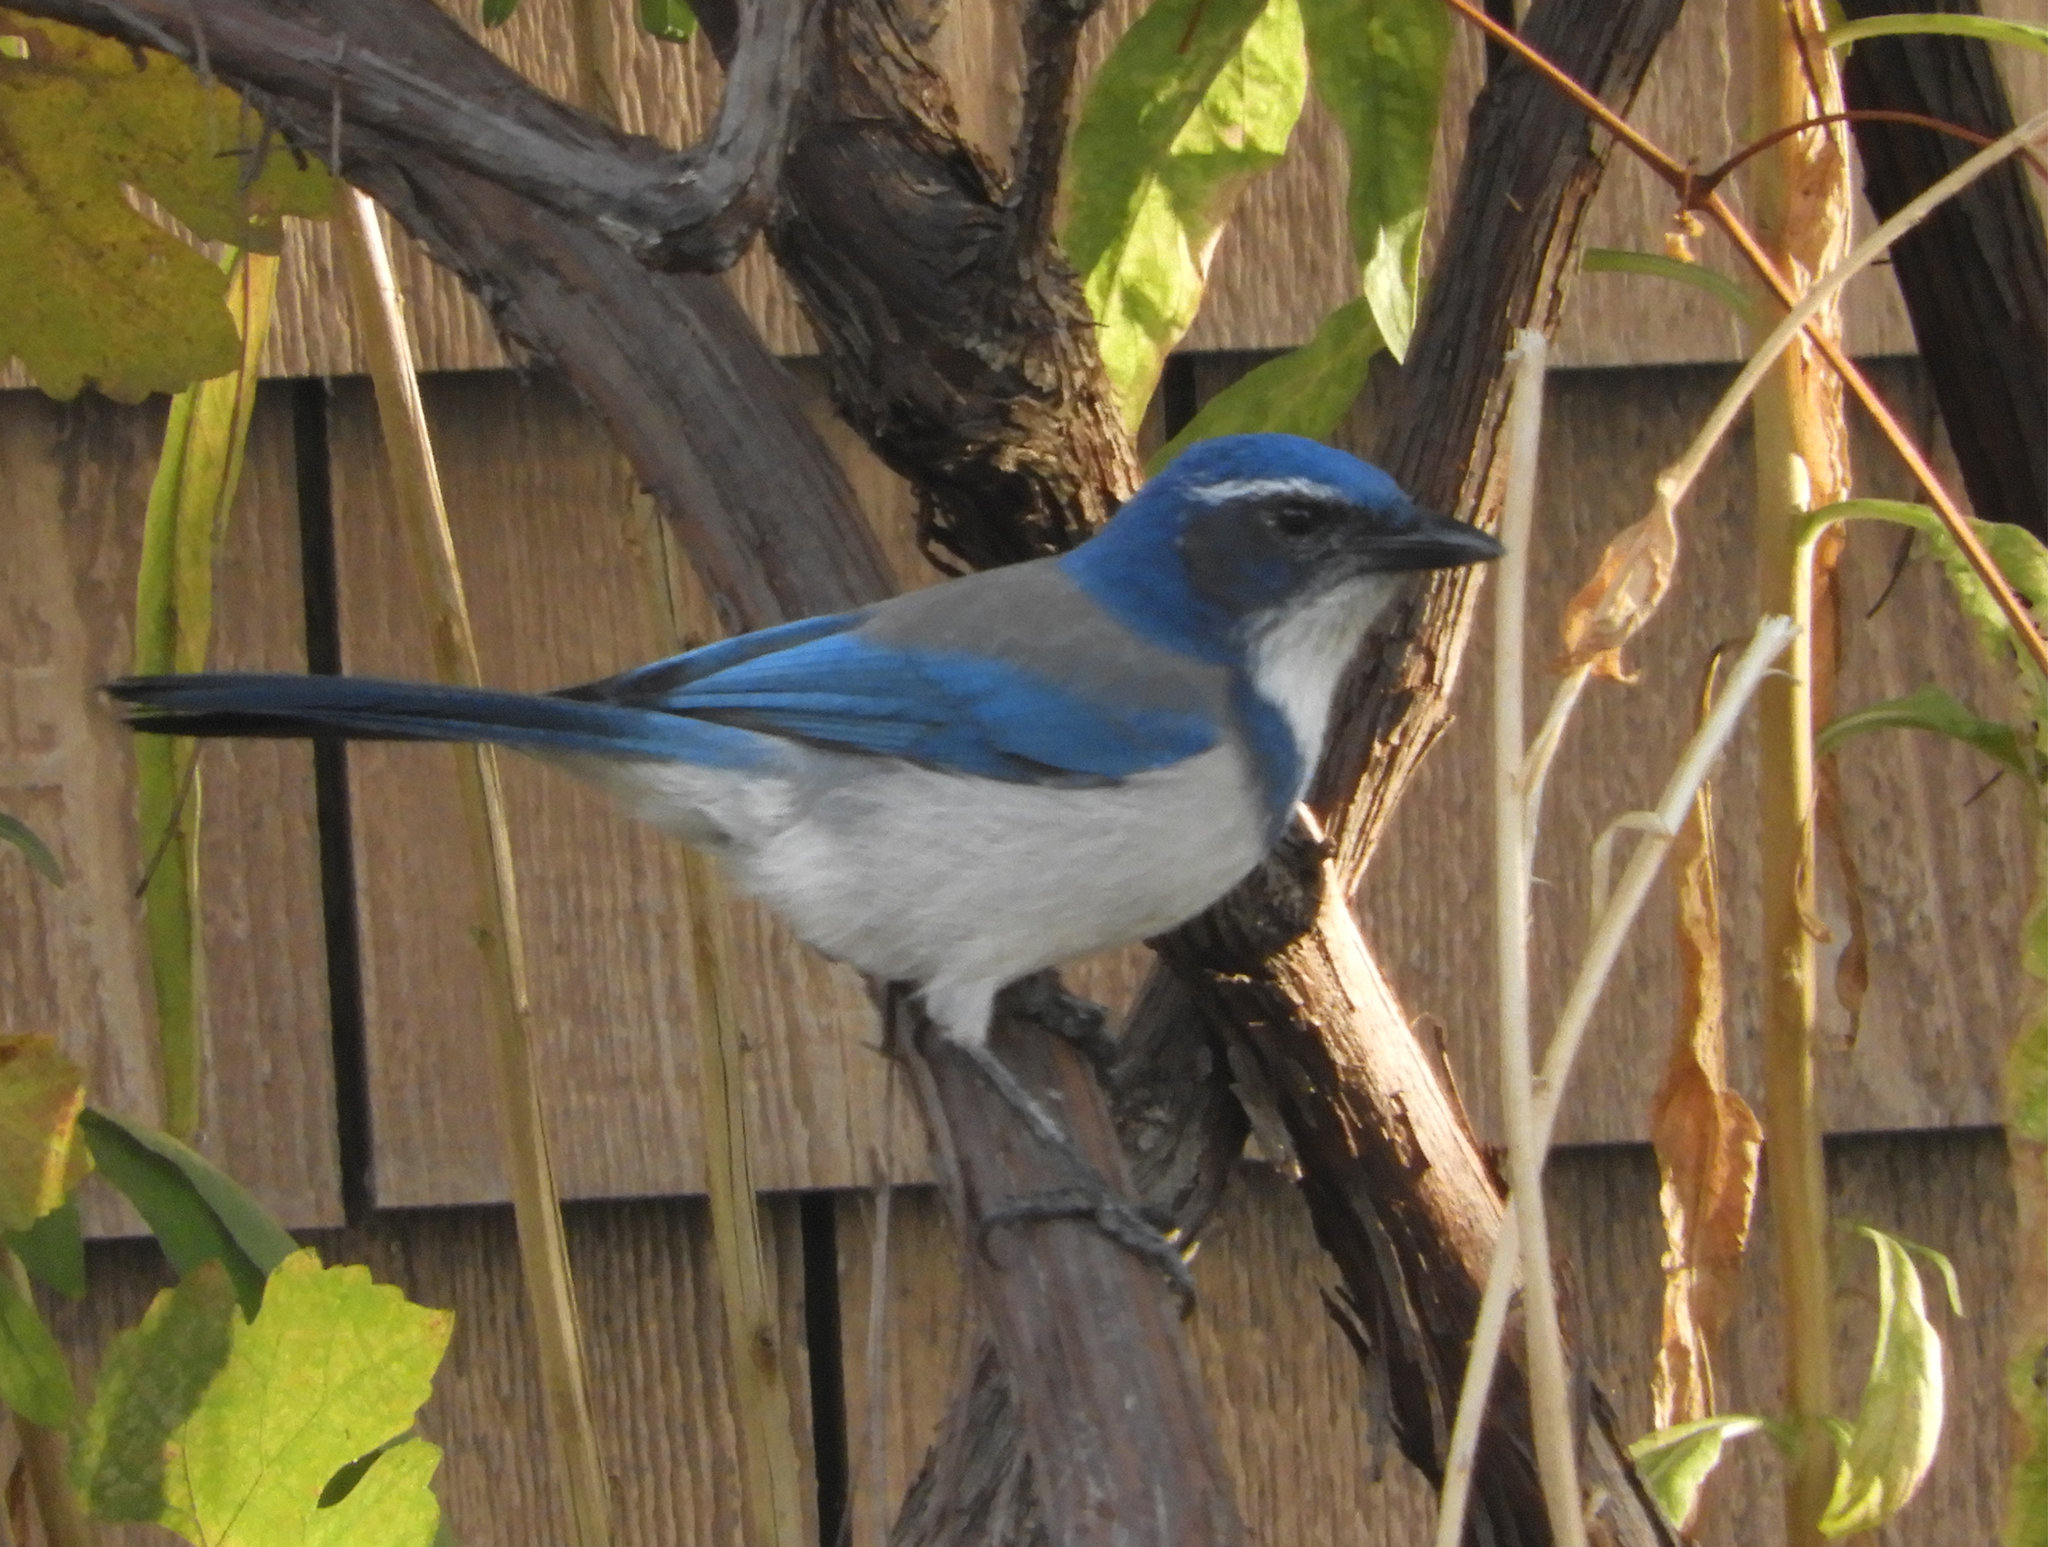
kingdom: Animalia
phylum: Chordata
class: Aves
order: Passeriformes
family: Corvidae
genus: Aphelocoma
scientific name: Aphelocoma californica
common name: California scrub-jay
